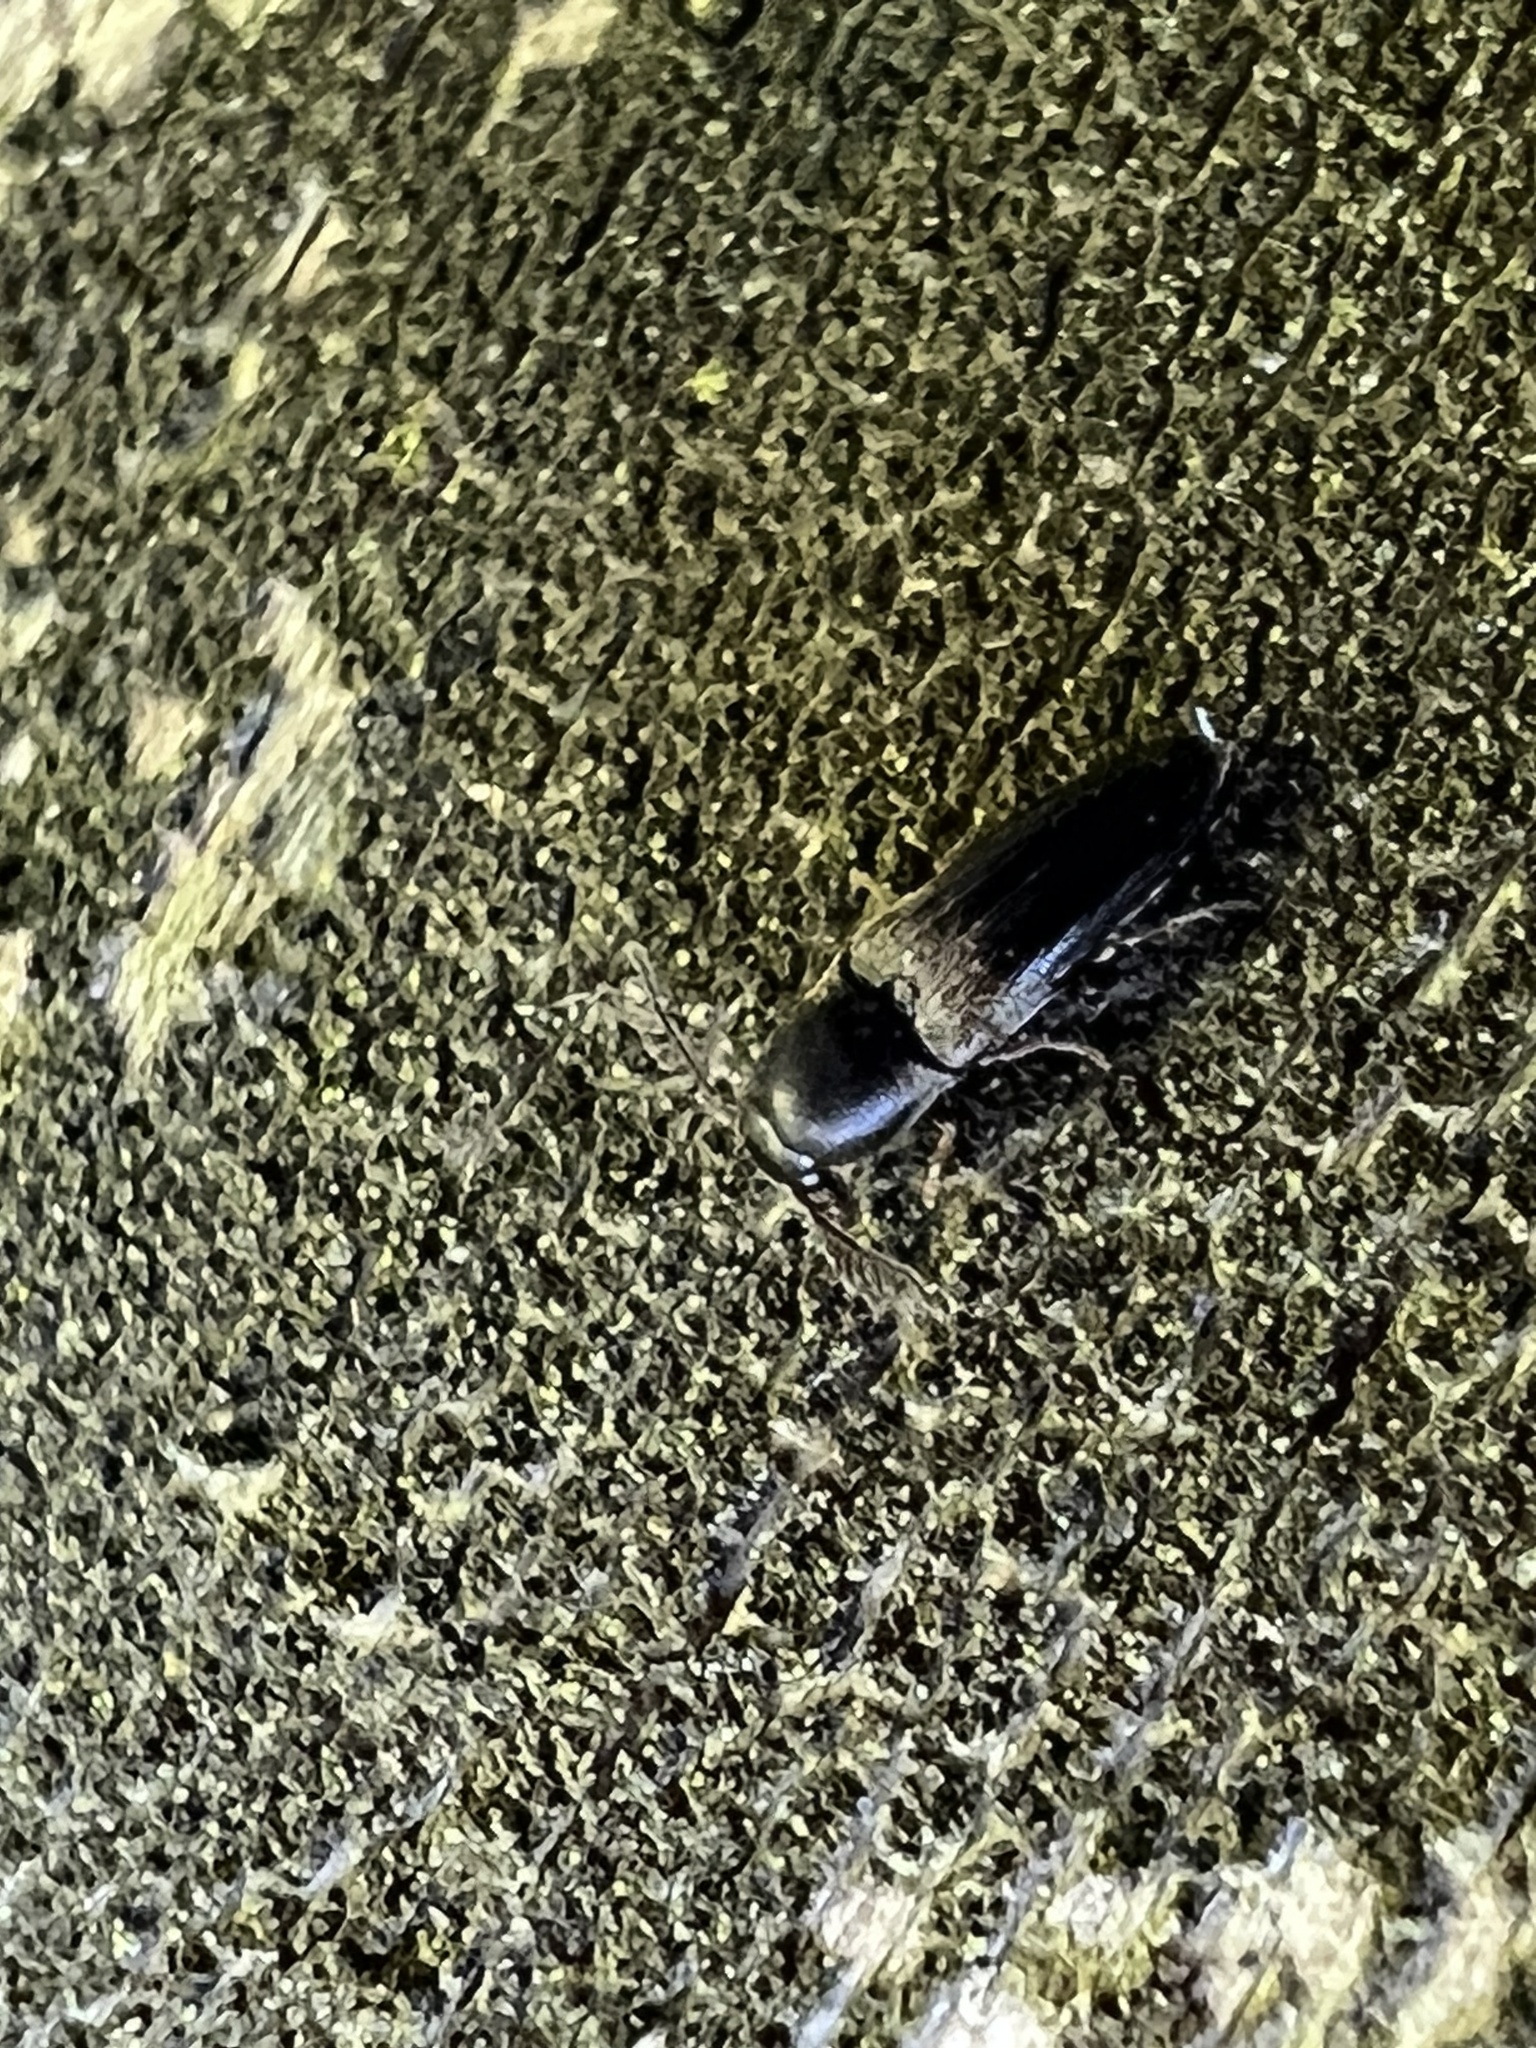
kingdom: Animalia
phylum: Arthropoda
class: Insecta
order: Coleoptera
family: Eucnemidae
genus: Deltometopus
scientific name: Deltometopus amoenicornis
